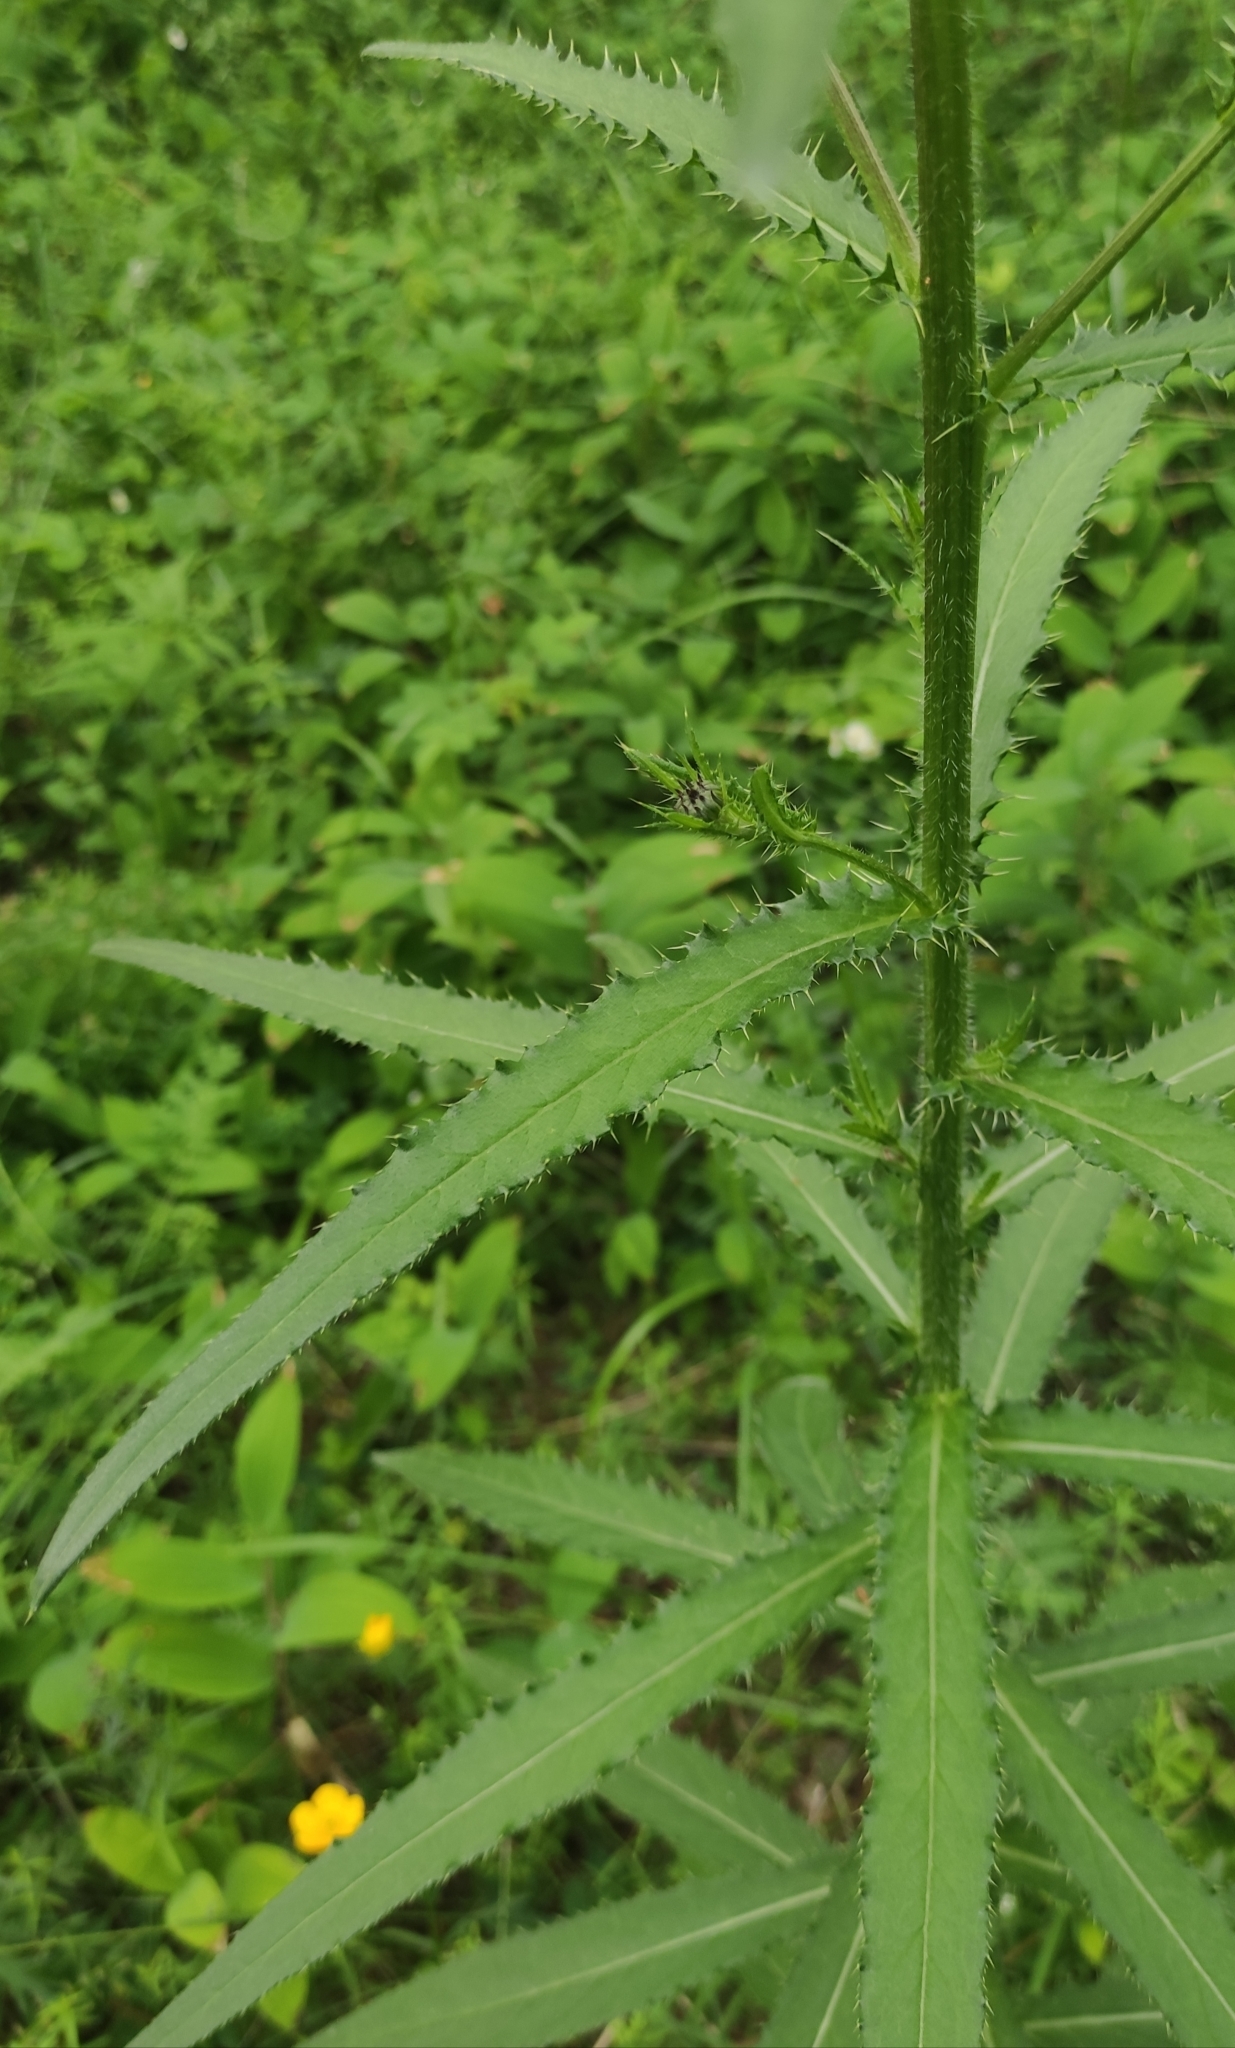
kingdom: Plantae
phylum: Tracheophyta
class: Magnoliopsida
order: Asterales
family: Asteraceae
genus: Cirsium
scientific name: Cirsium serratuloides
